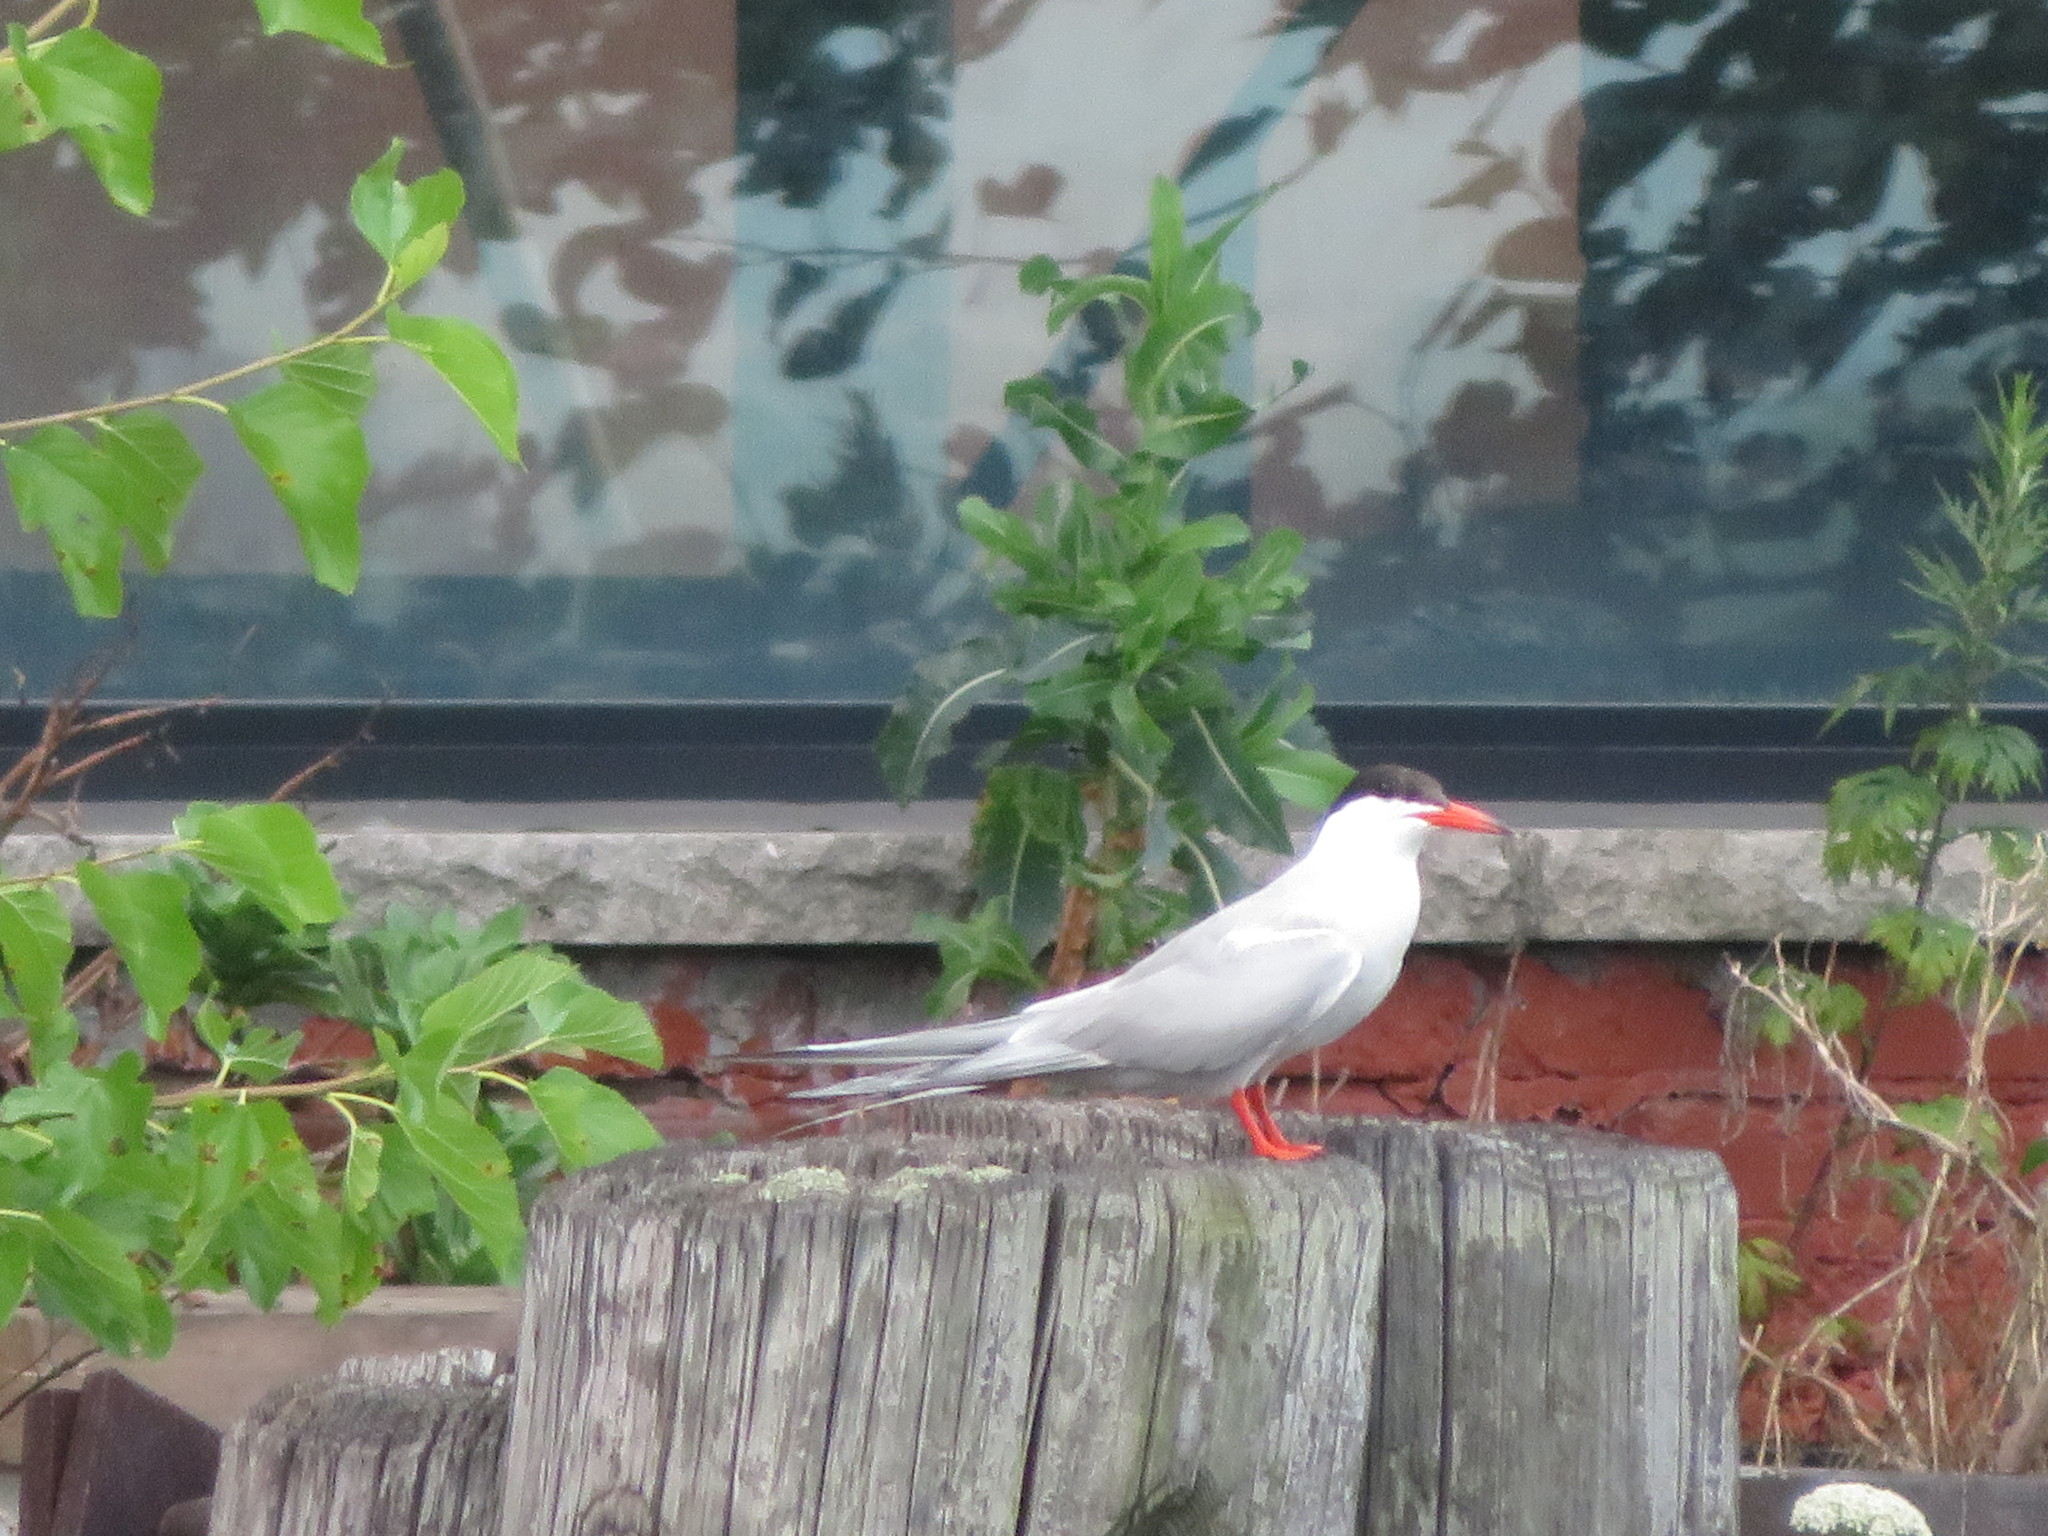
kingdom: Animalia
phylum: Chordata
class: Aves
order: Charadriiformes
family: Laridae
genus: Sterna
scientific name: Sterna hirundo
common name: Common tern
